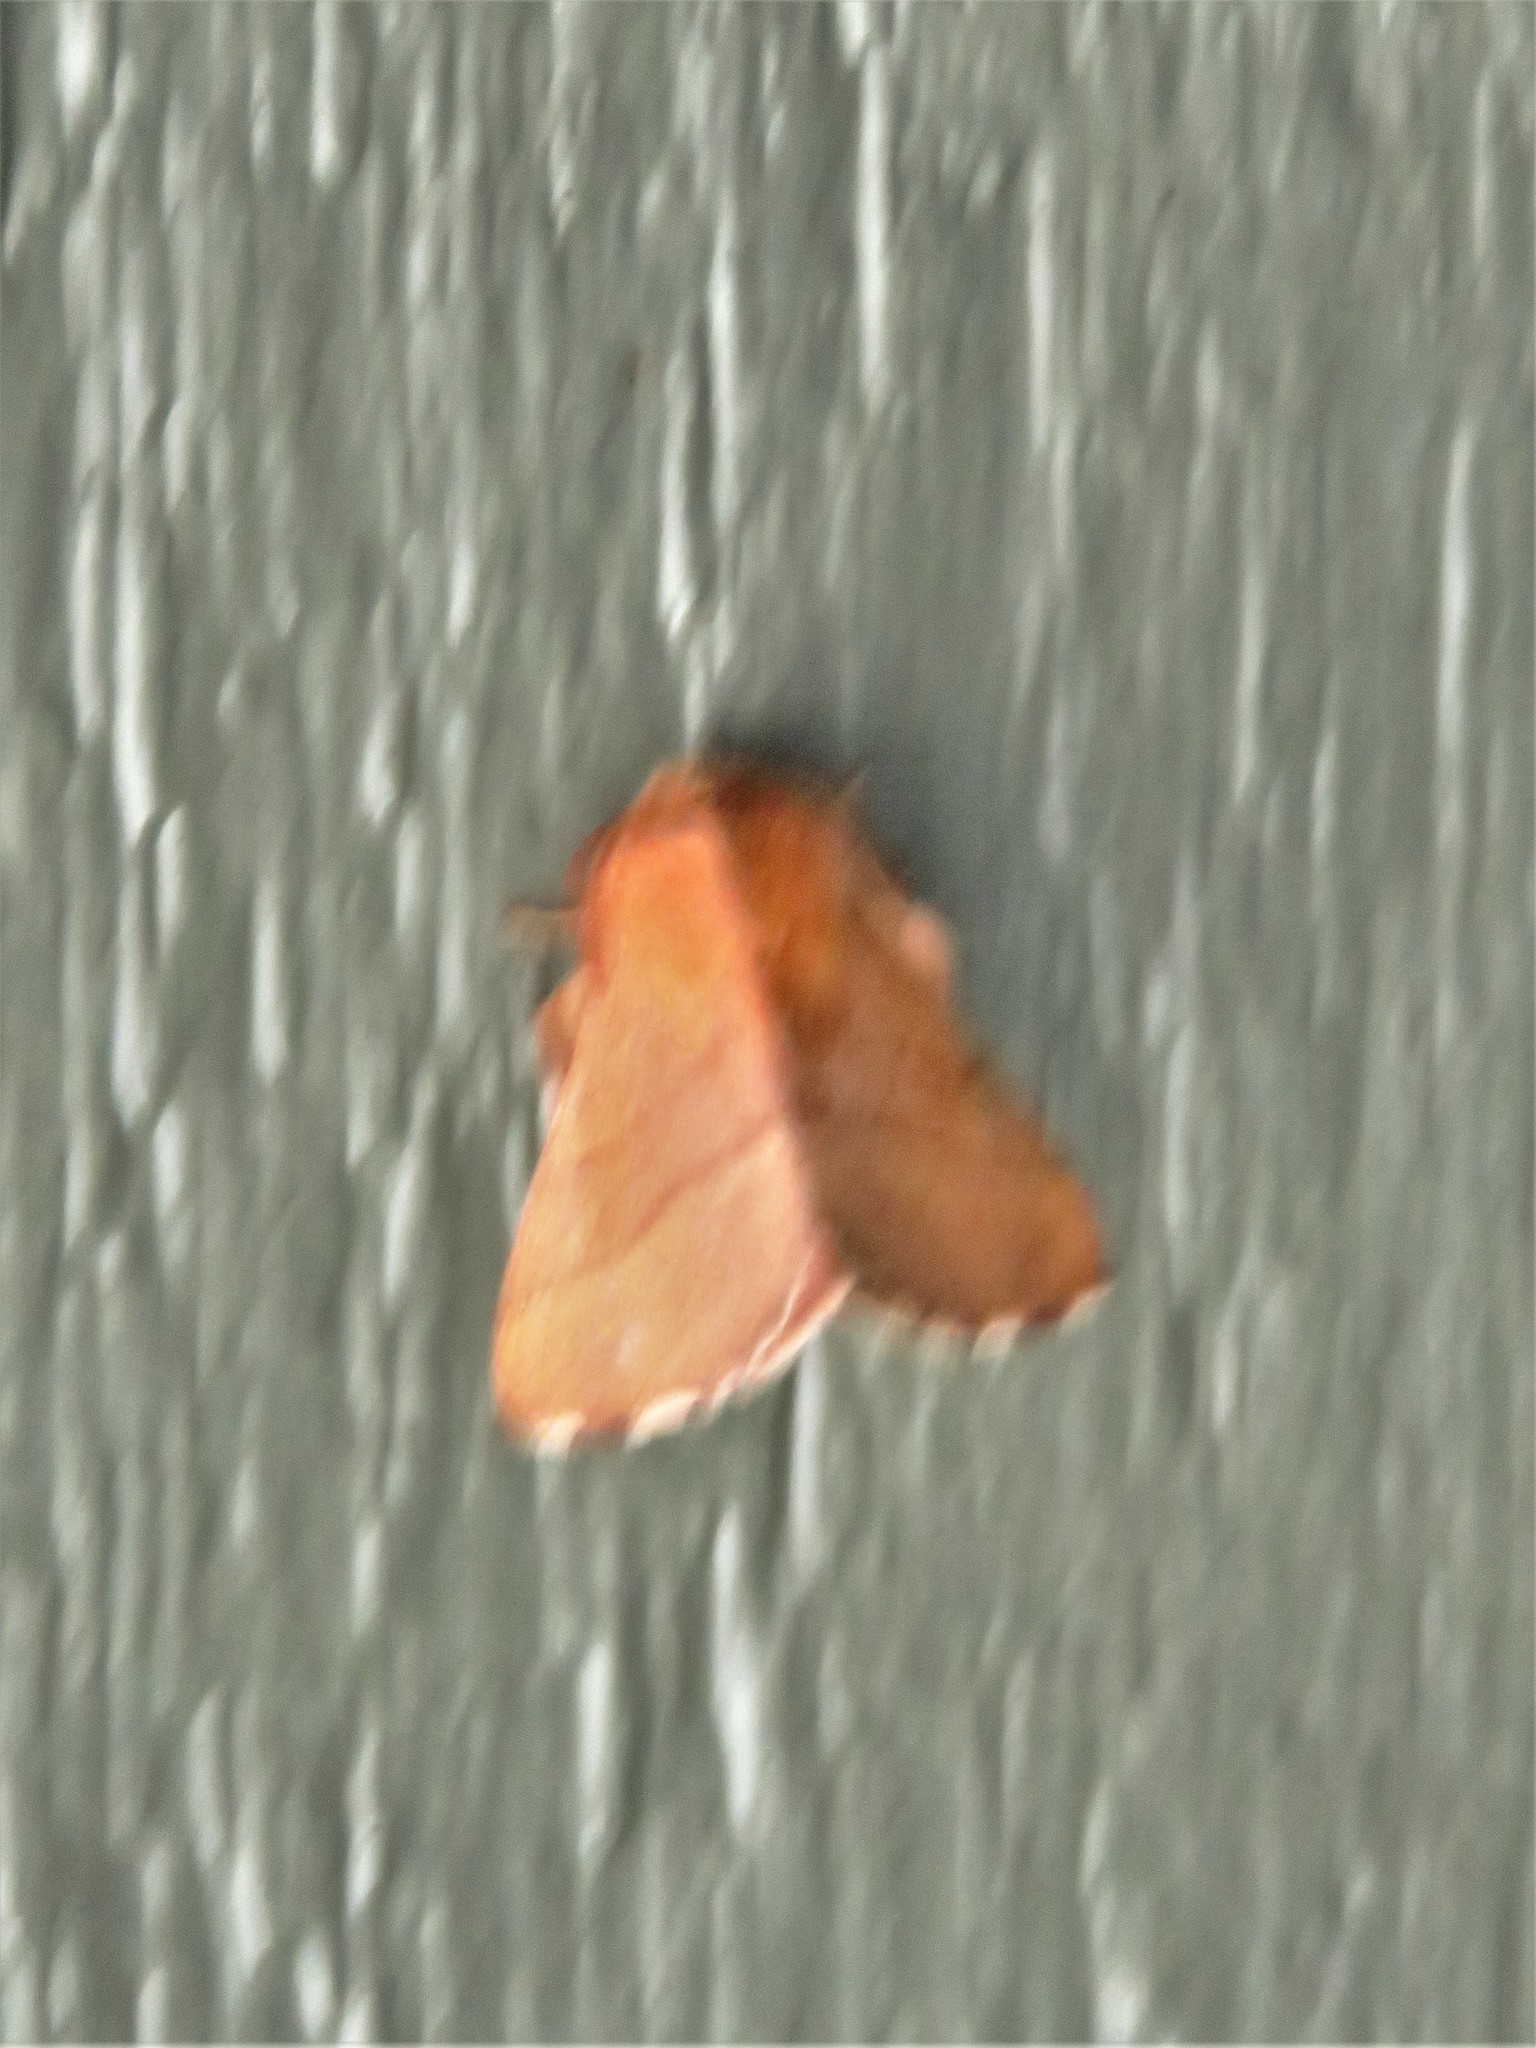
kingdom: Animalia
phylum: Arthropoda
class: Insecta
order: Lepidoptera
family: Lasiocampidae
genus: Malacosoma
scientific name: Malacosoma disstria
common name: Forest tent caterpillar
